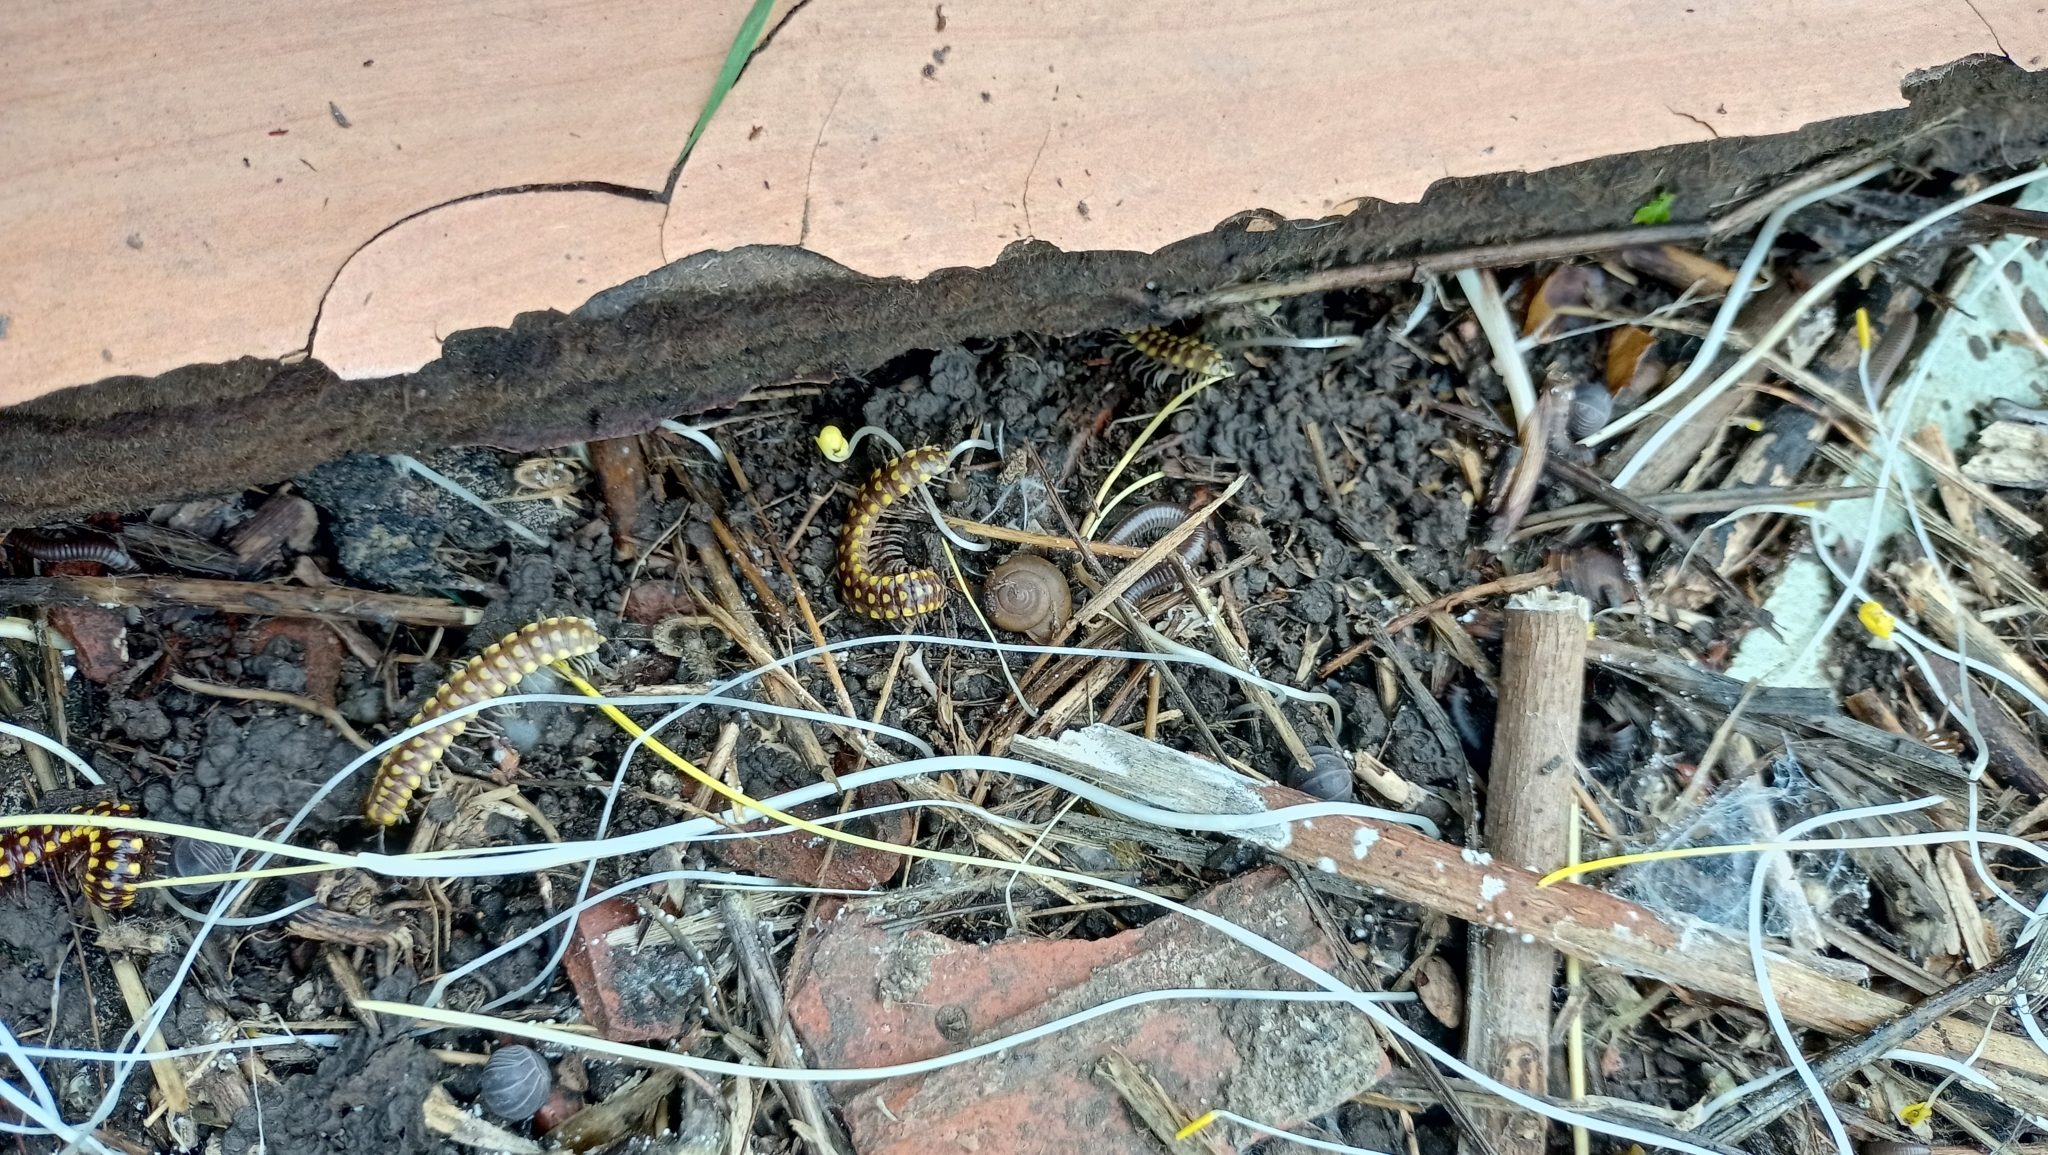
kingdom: Animalia
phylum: Arthropoda
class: Diplopoda
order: Polydesmida
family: Xystodesmidae
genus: Melaphe
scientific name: Melaphe vestita
